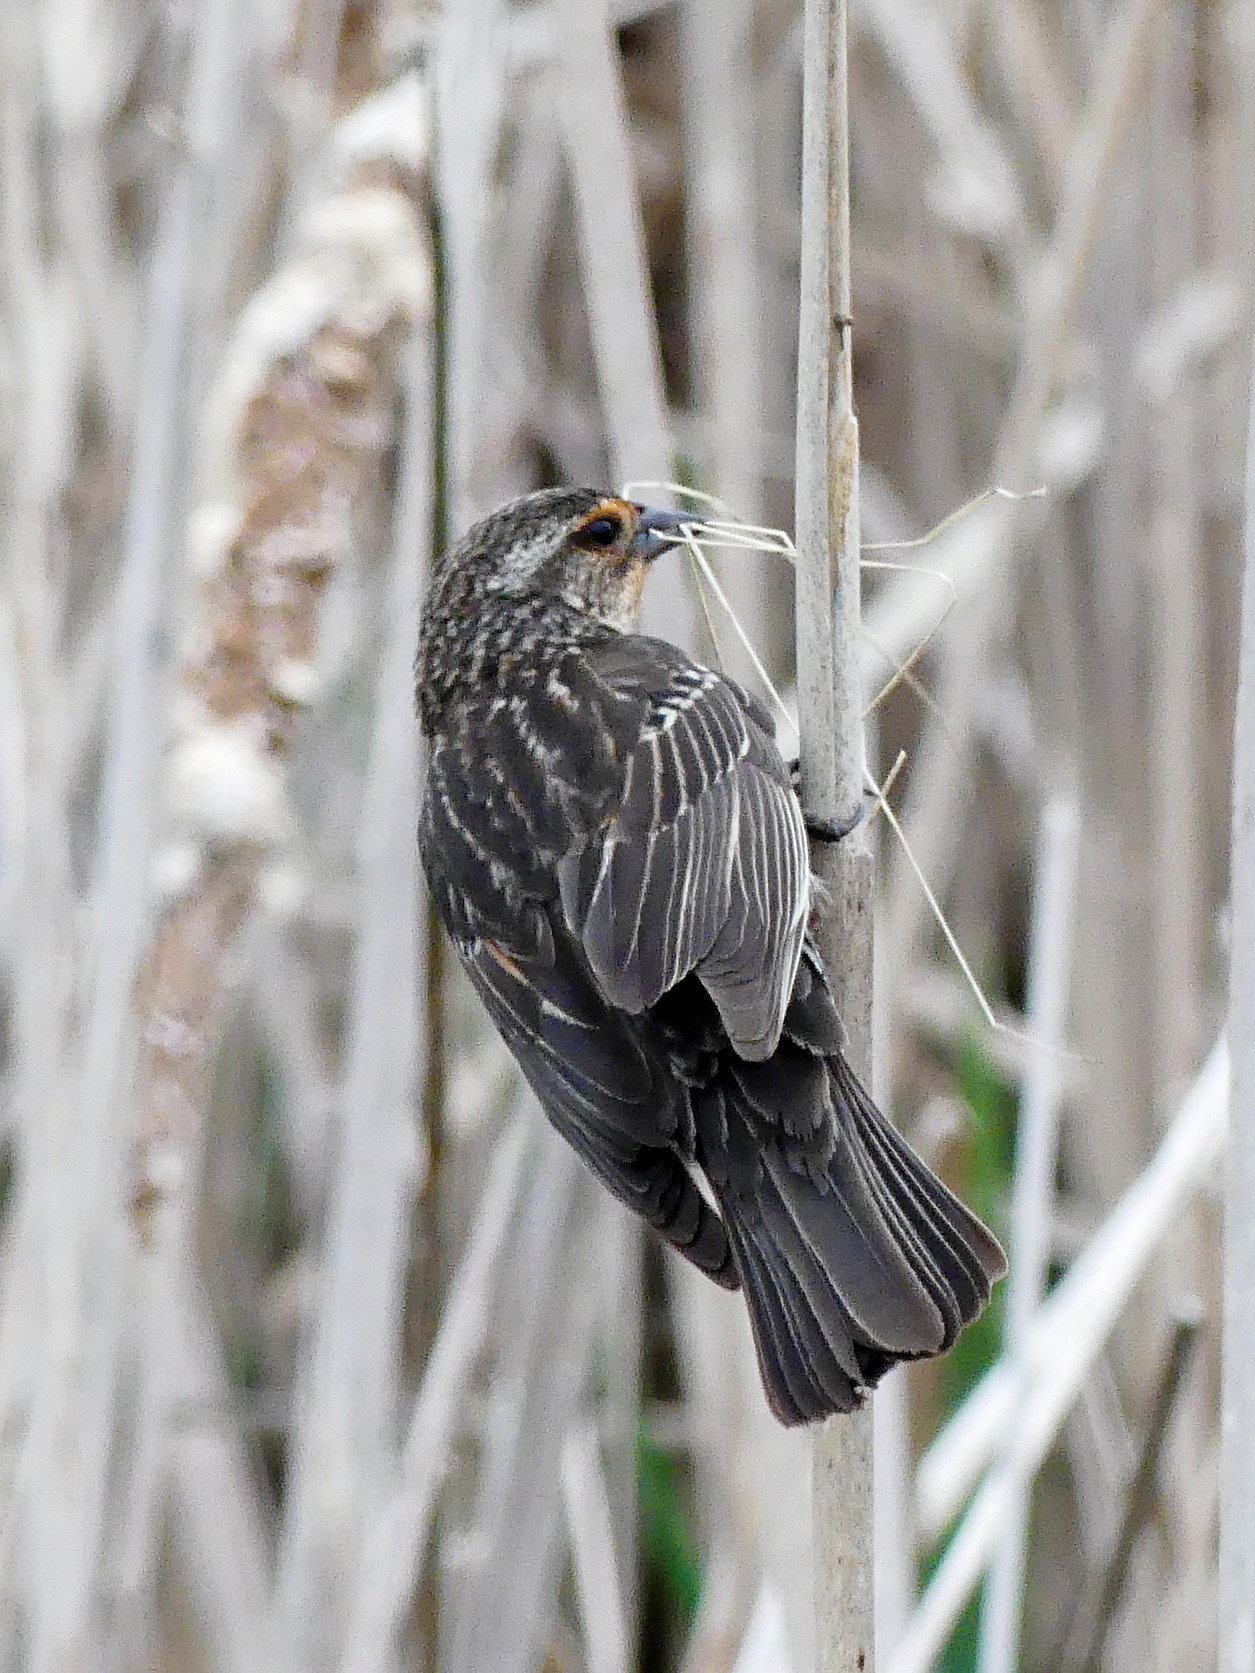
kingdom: Animalia
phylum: Chordata
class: Aves
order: Passeriformes
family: Icteridae
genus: Agelaius
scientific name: Agelaius phoeniceus
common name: Red-winged blackbird
